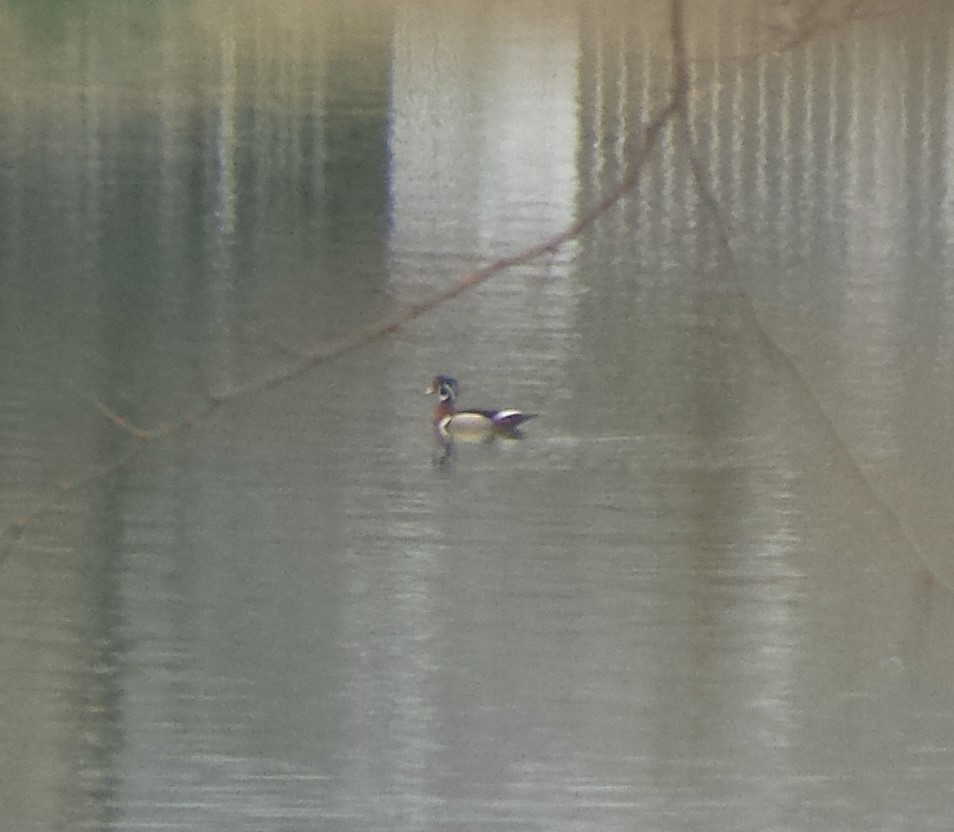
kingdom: Animalia
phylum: Chordata
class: Aves
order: Anseriformes
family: Anatidae
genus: Aix
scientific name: Aix sponsa
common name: Wood duck
